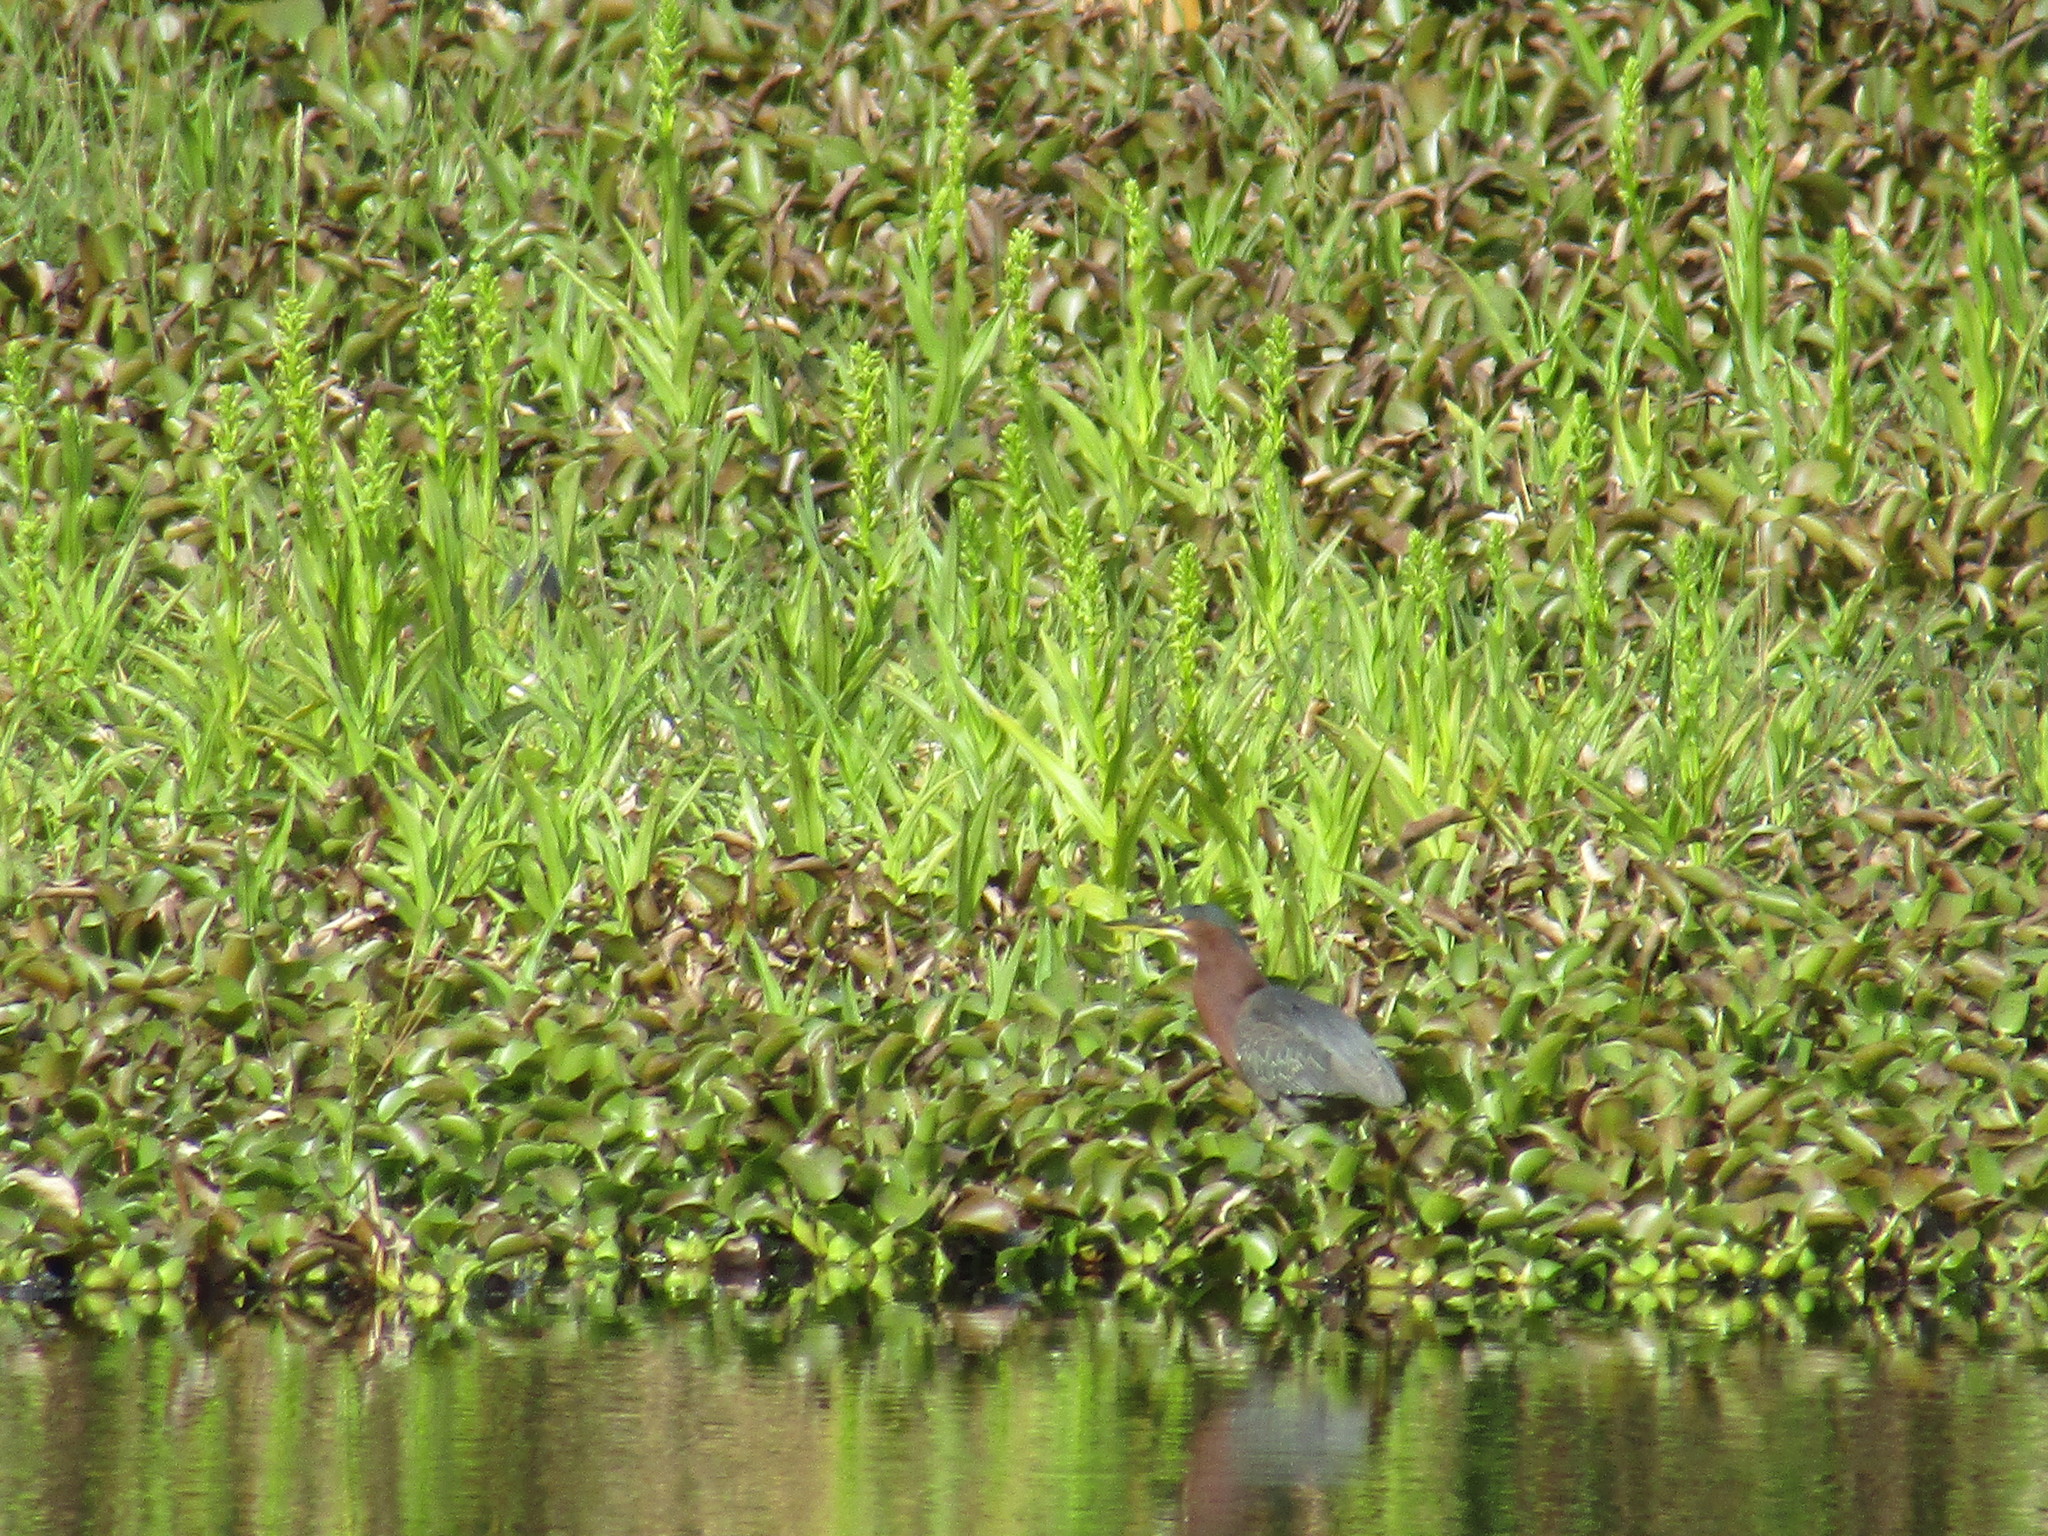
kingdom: Animalia
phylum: Chordata
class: Aves
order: Pelecaniformes
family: Ardeidae
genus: Butorides
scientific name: Butorides virescens
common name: Green heron
